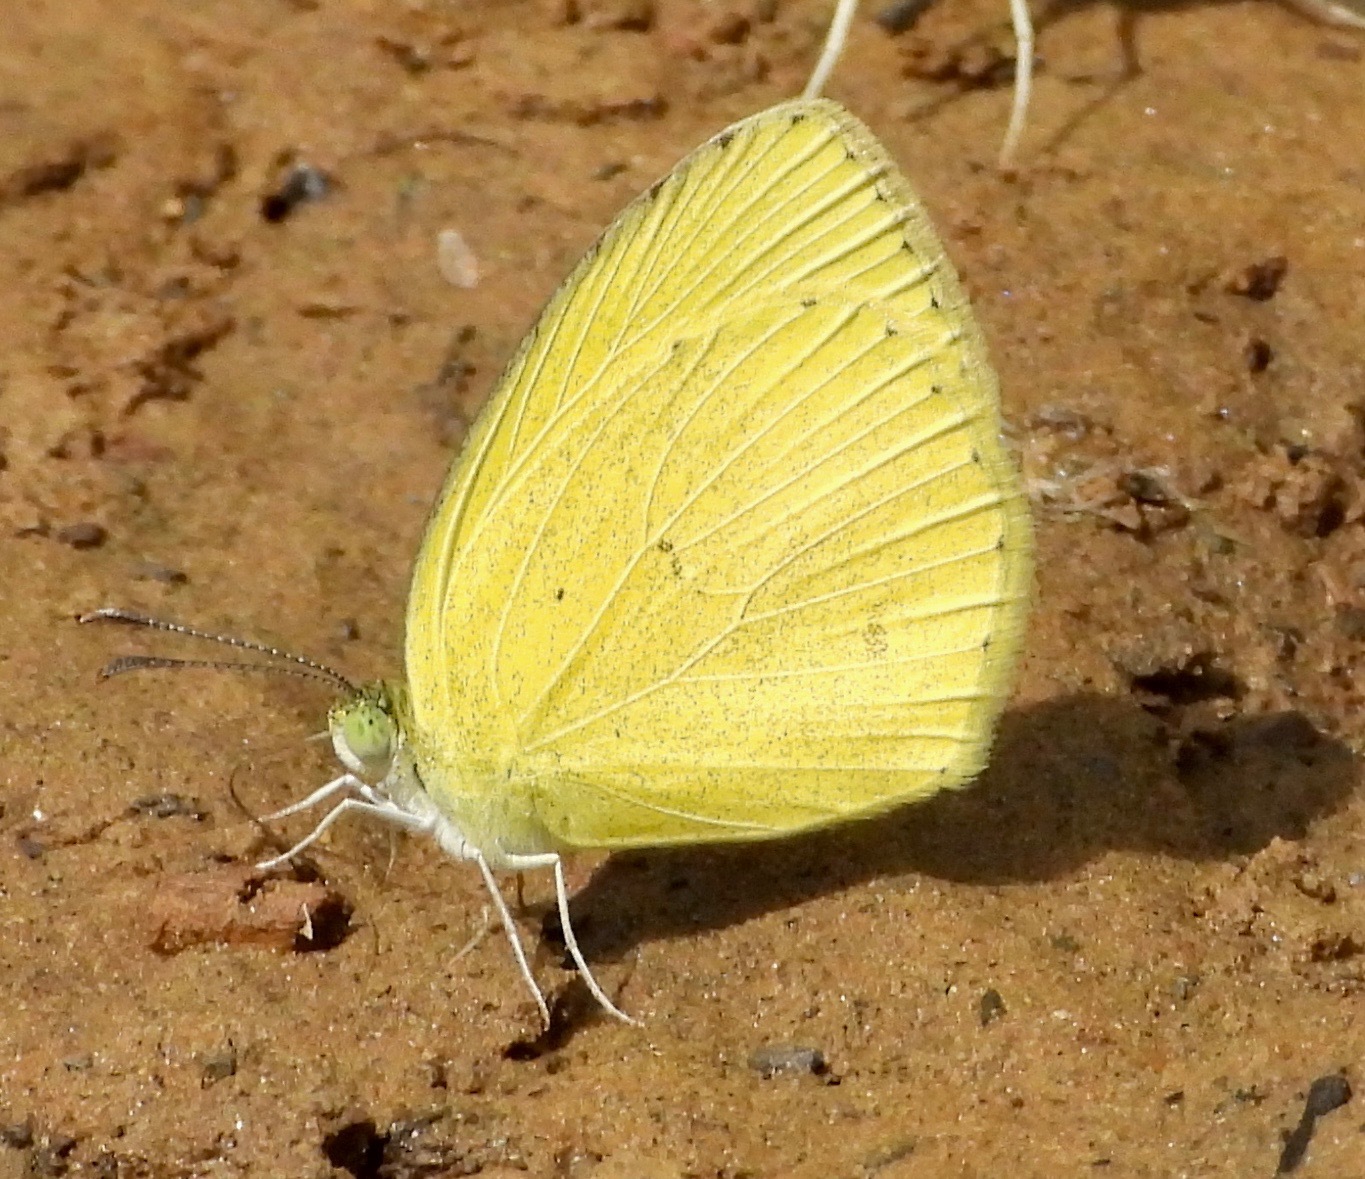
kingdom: Animalia
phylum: Arthropoda
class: Insecta
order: Lepidoptera
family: Pieridae
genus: Eurema
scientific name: Eurema laeta
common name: Spotless grass yellow
